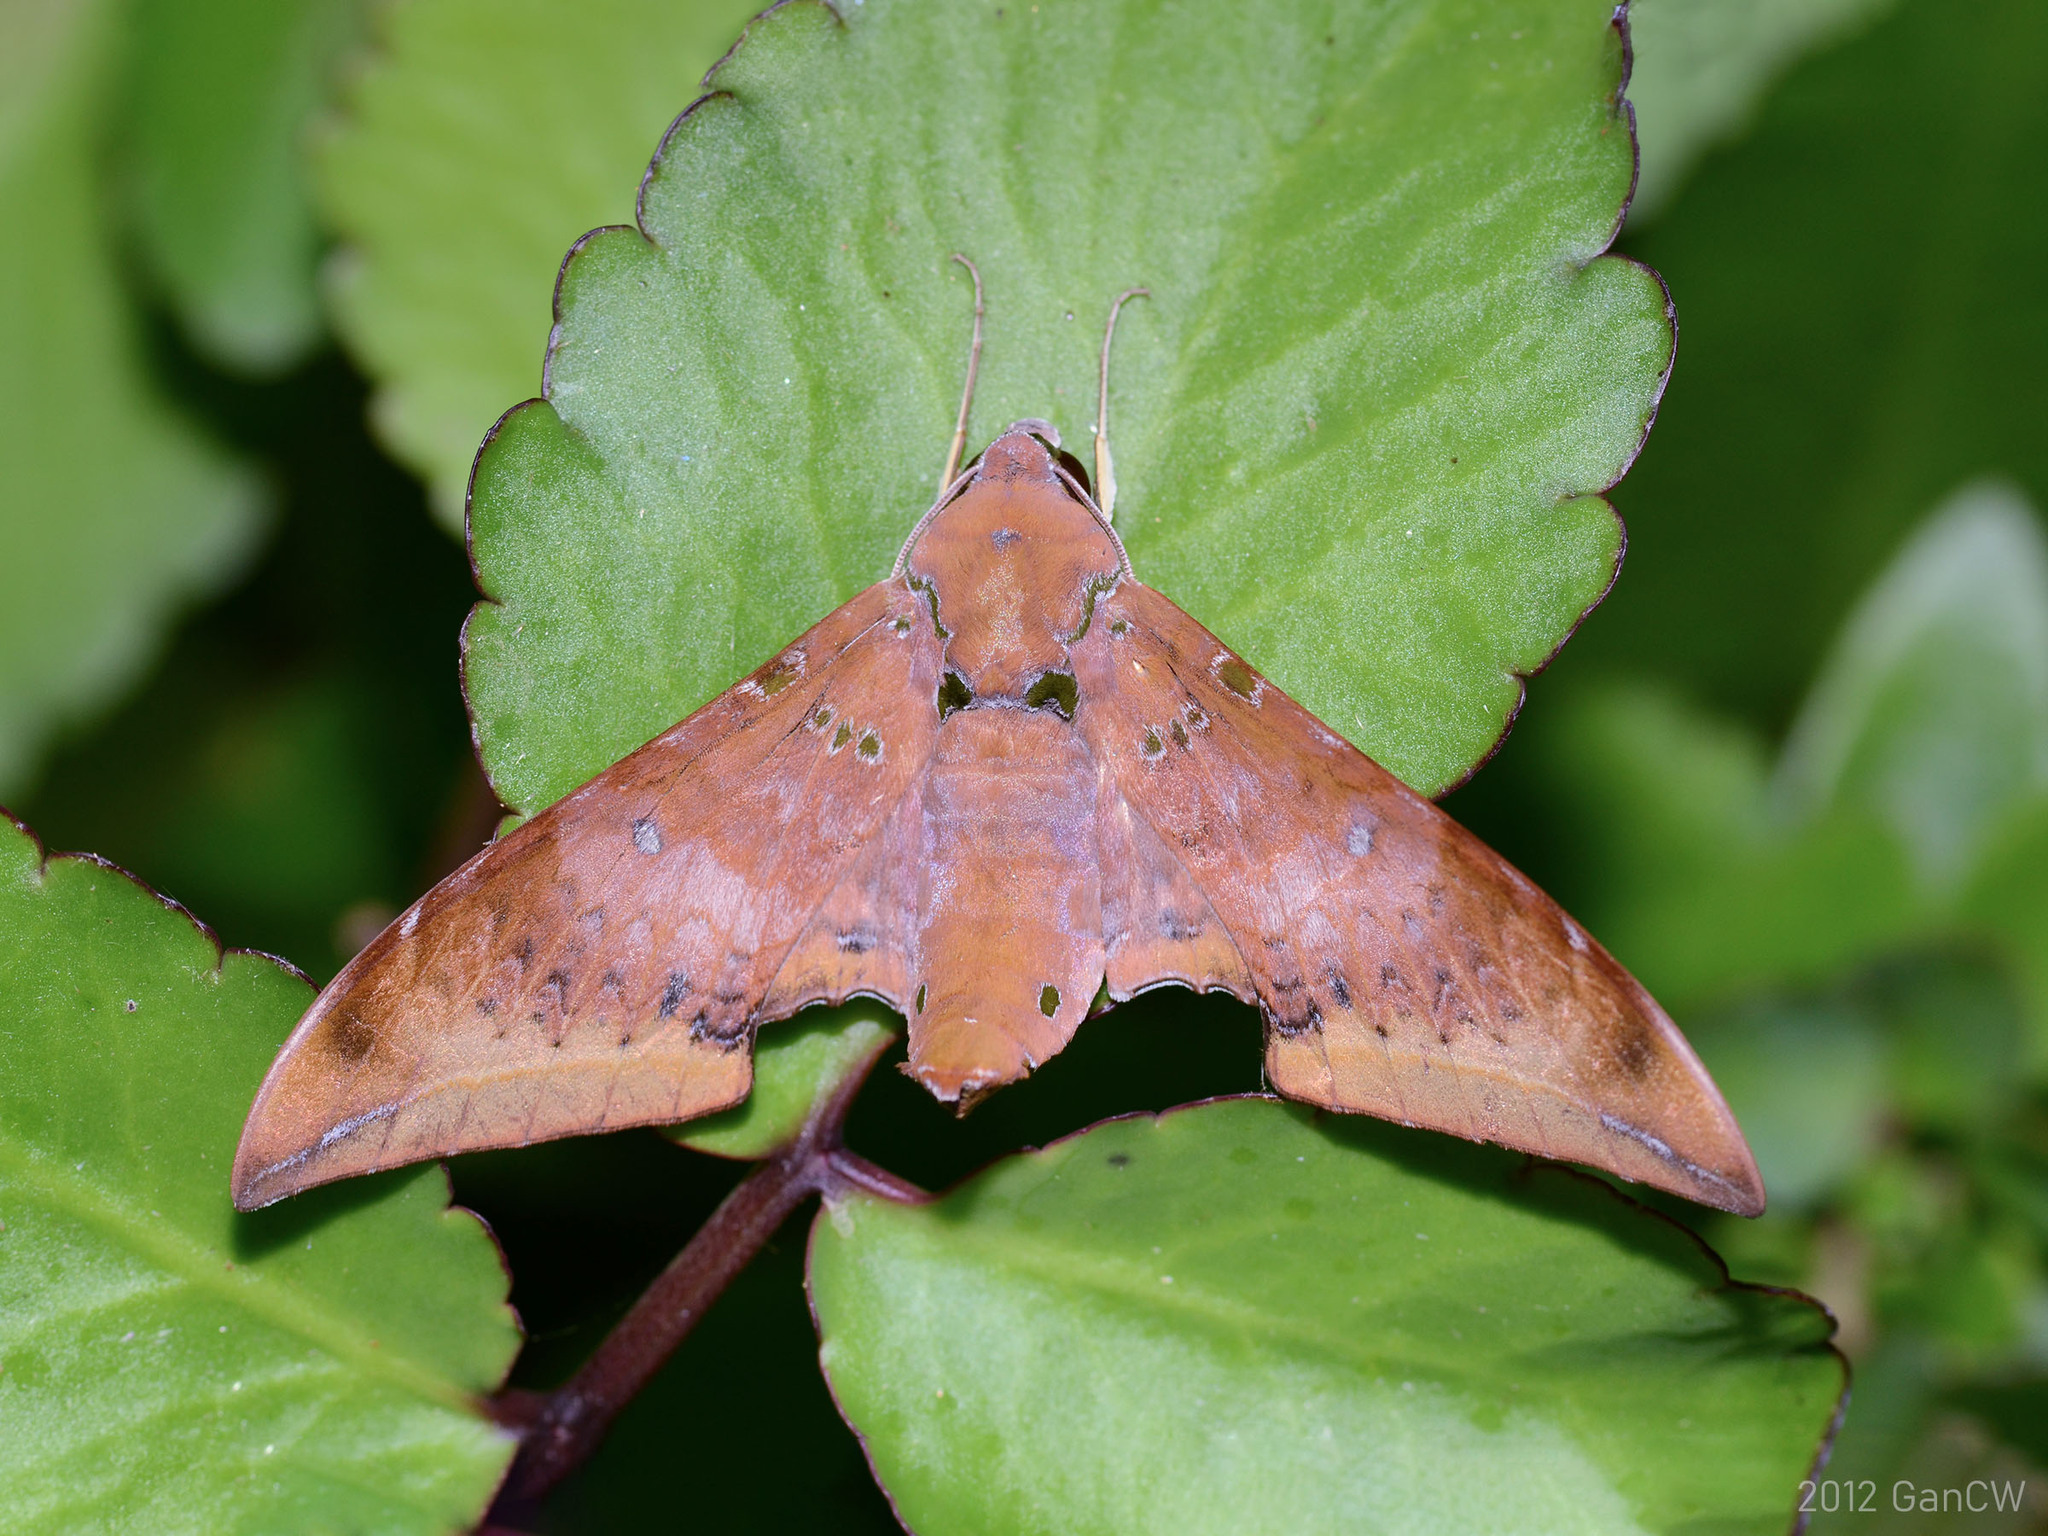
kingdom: Animalia
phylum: Arthropoda
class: Insecta
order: Lepidoptera
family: Sphingidae
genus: Ambulyx
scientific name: Ambulyx moorei
